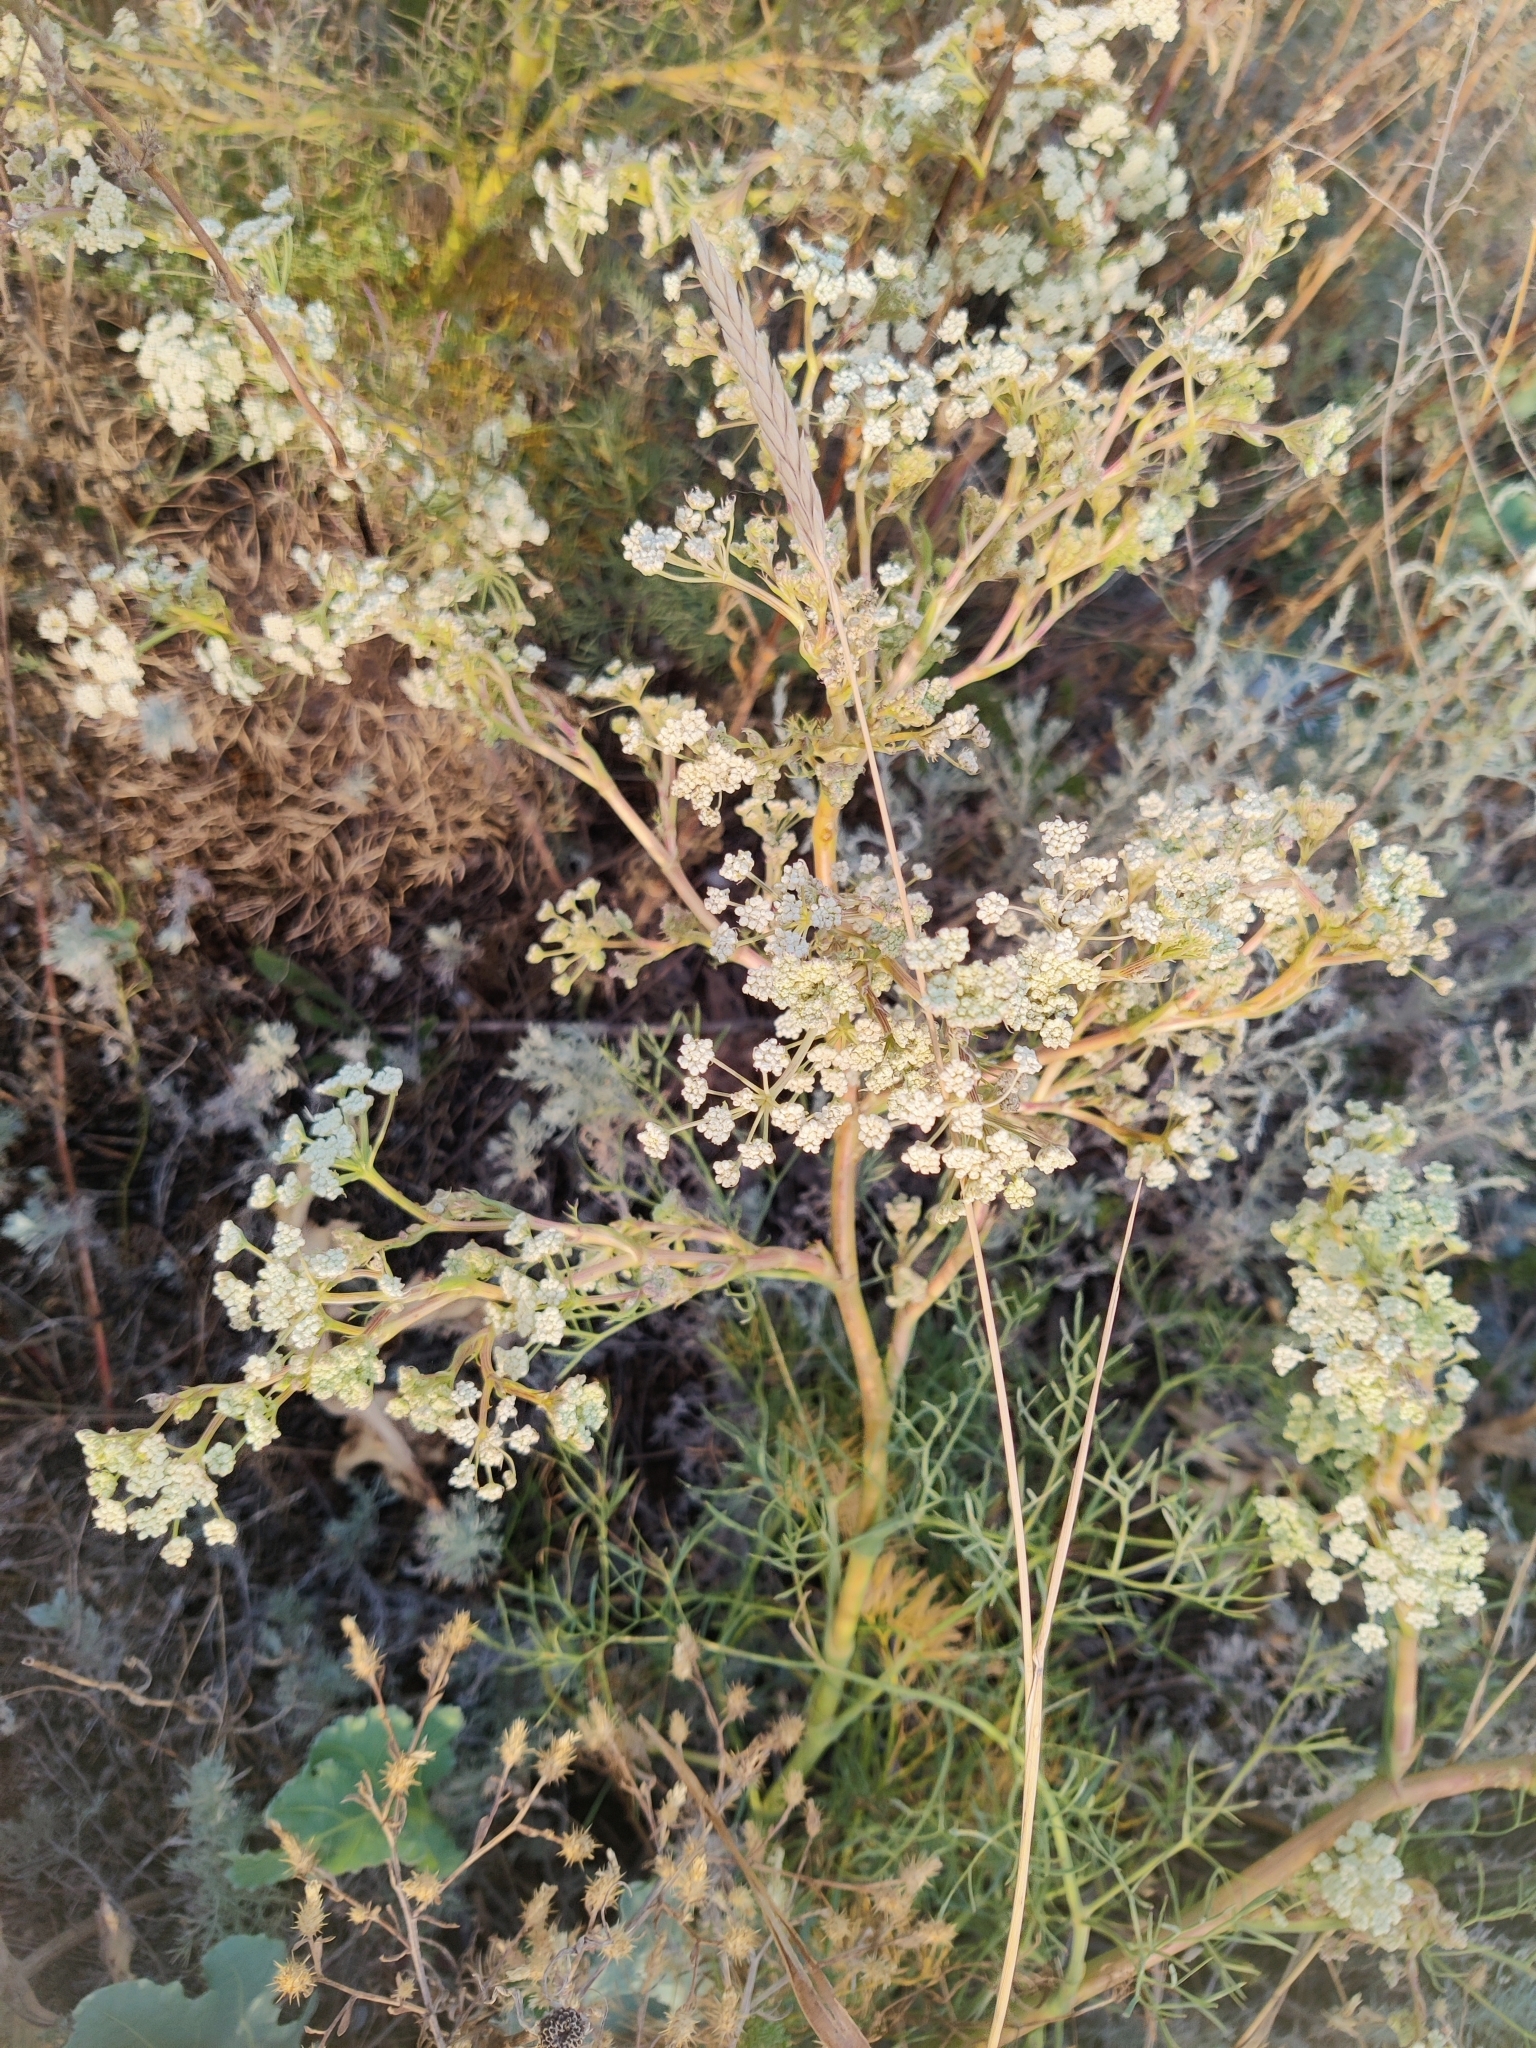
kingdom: Plantae
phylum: Tracheophyta
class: Magnoliopsida
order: Apiales
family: Apiaceae
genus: Seseli
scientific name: Seseli arenarium
